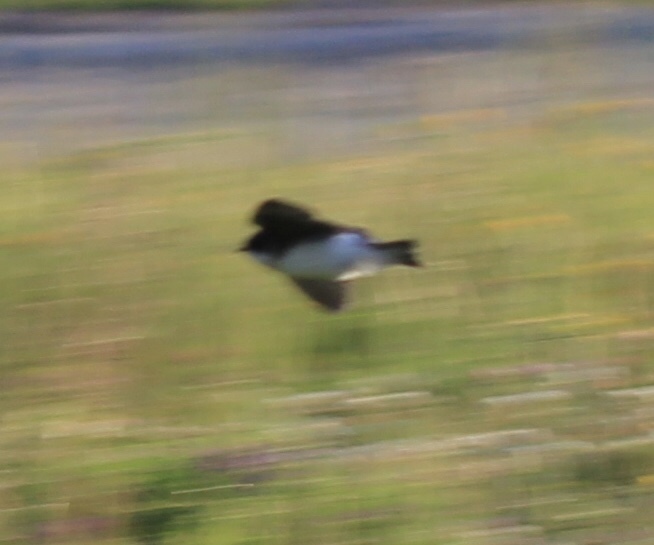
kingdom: Animalia
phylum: Chordata
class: Aves
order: Passeriformes
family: Hirundinidae
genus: Tachycineta
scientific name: Tachycineta bicolor
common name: Tree swallow
